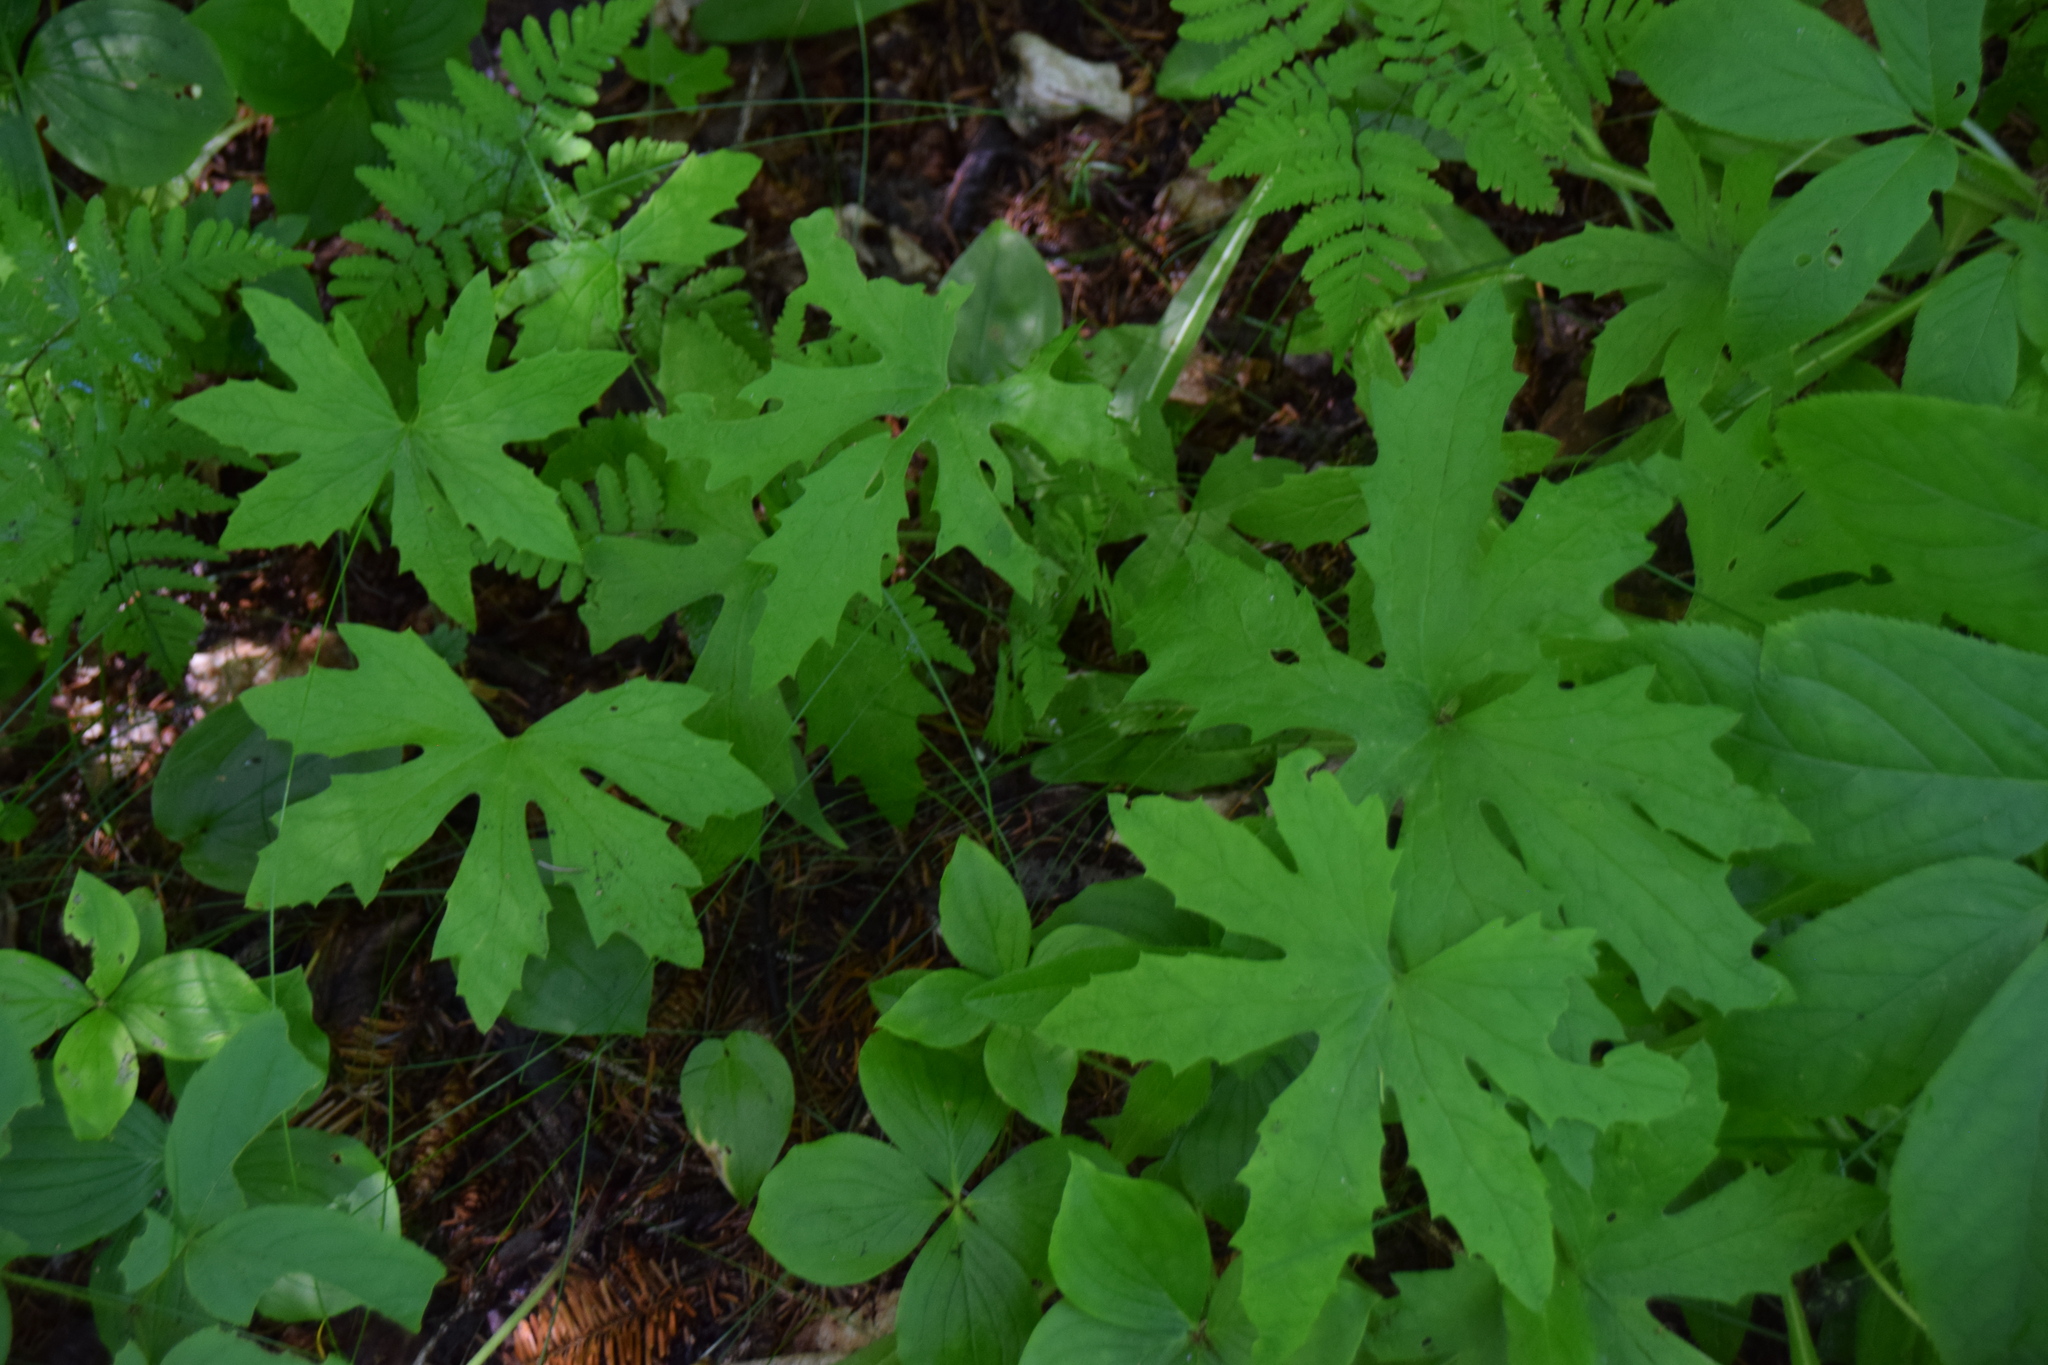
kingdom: Plantae
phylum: Tracheophyta
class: Magnoliopsida
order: Asterales
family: Asteraceae
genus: Petasites
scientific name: Petasites frigidus
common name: Arctic butterbur
